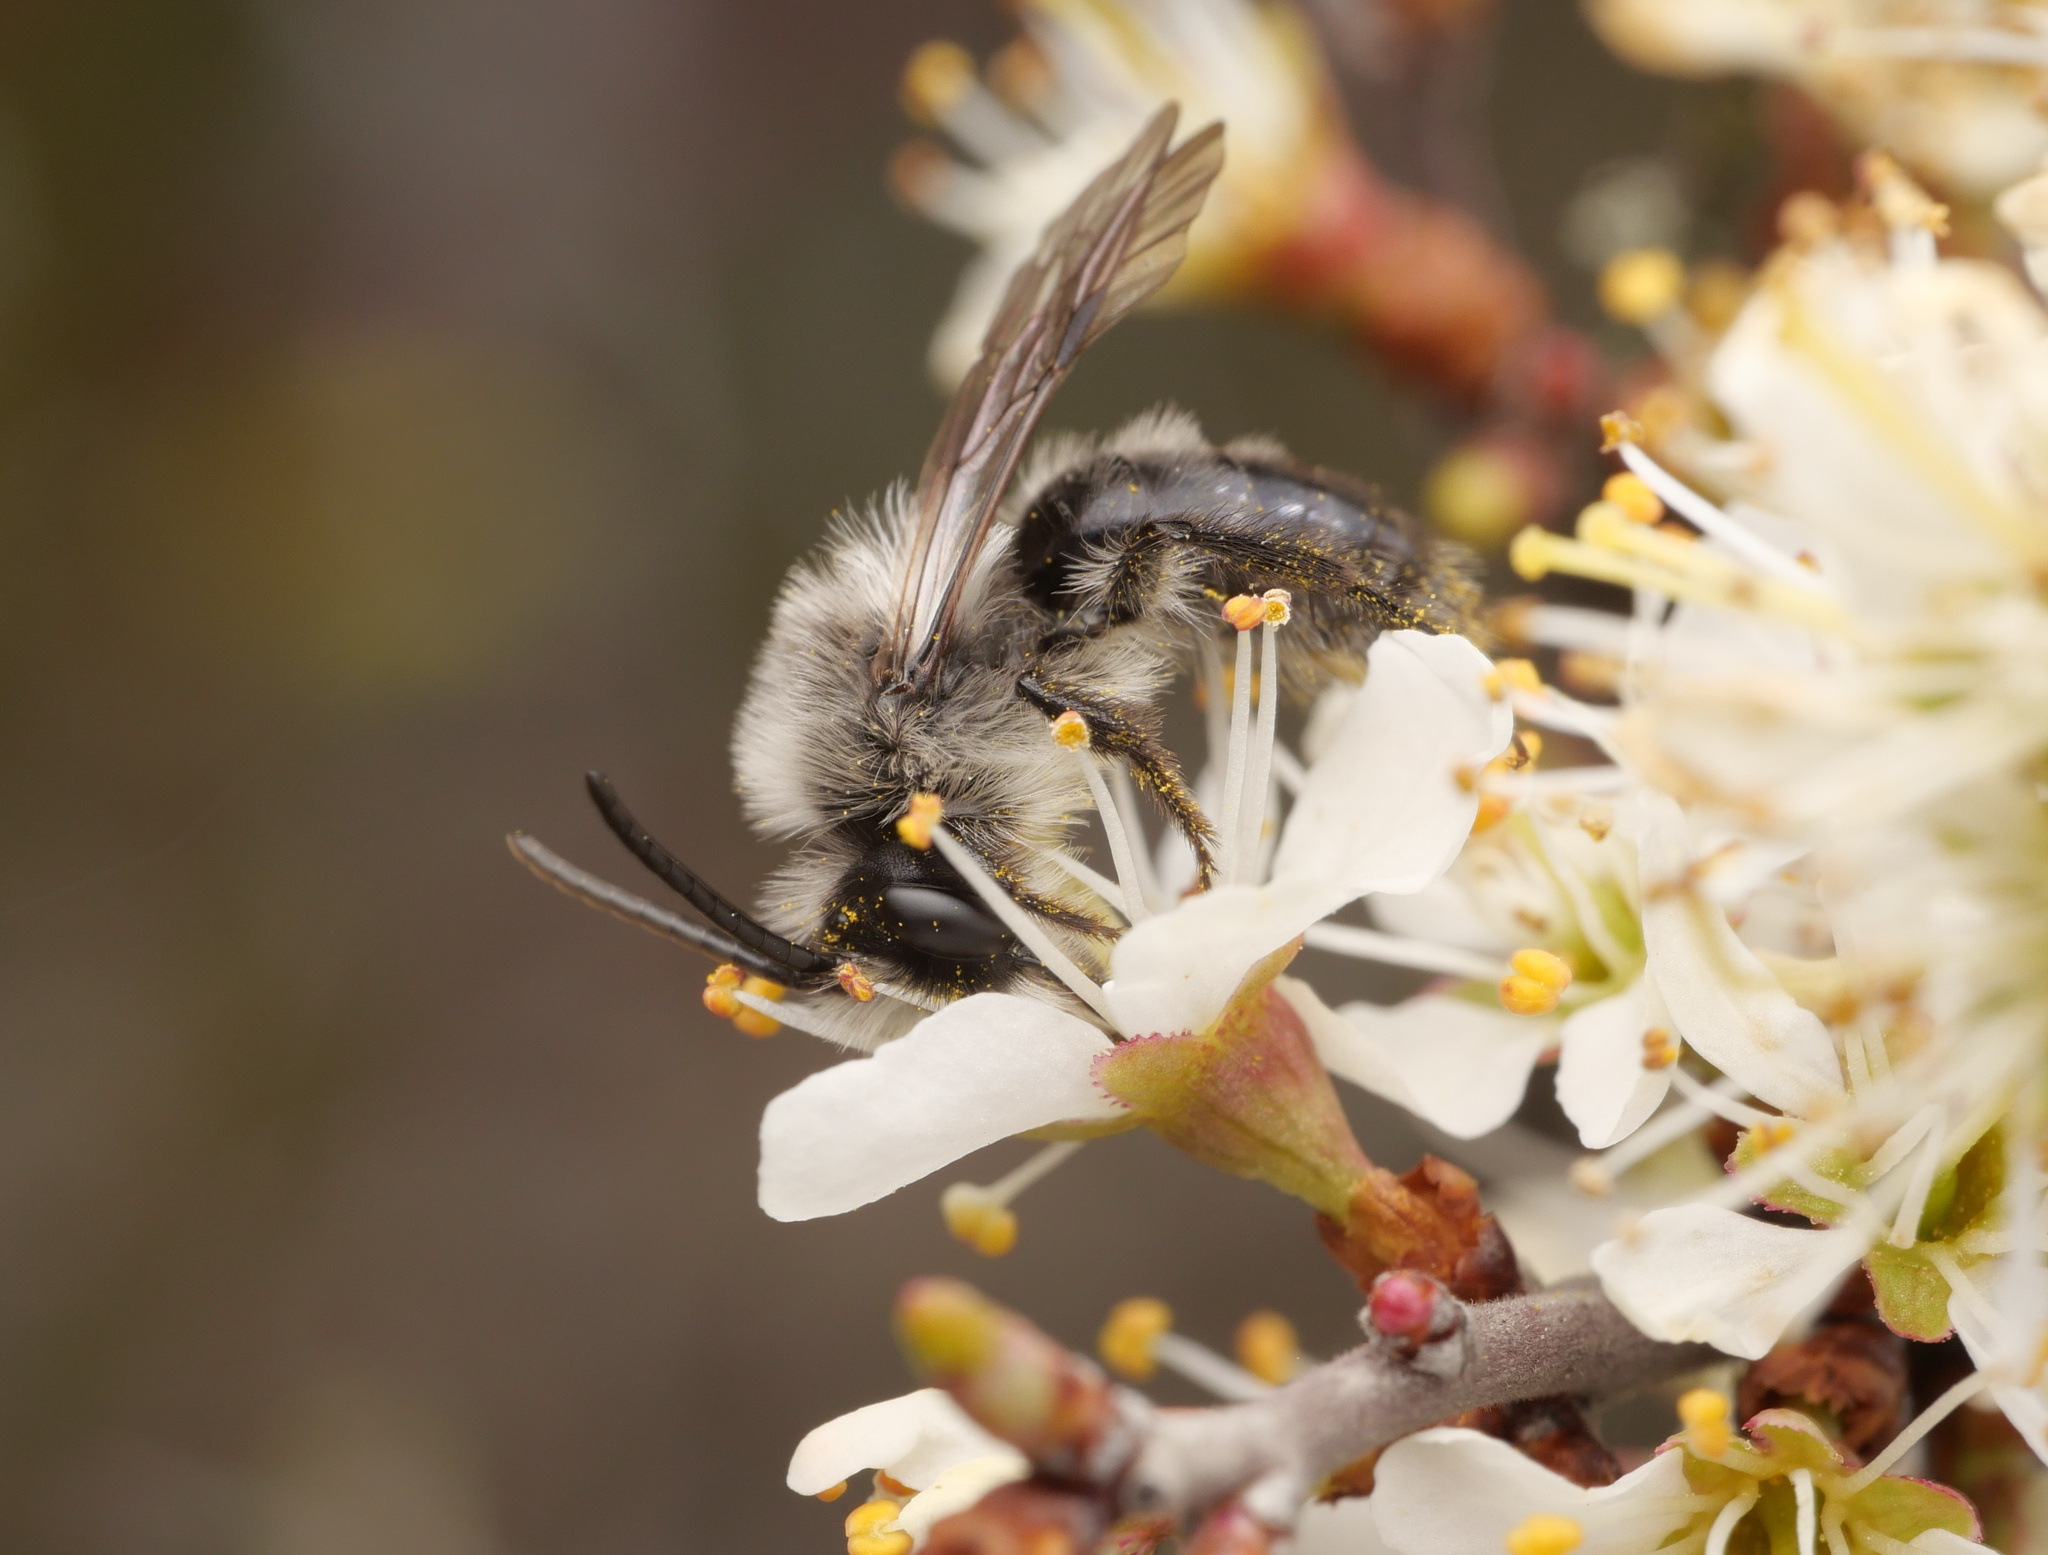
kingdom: Animalia
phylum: Arthropoda
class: Insecta
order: Hymenoptera
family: Andrenidae
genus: Andrena
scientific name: Andrena cineraria
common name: Ashy mining bee
